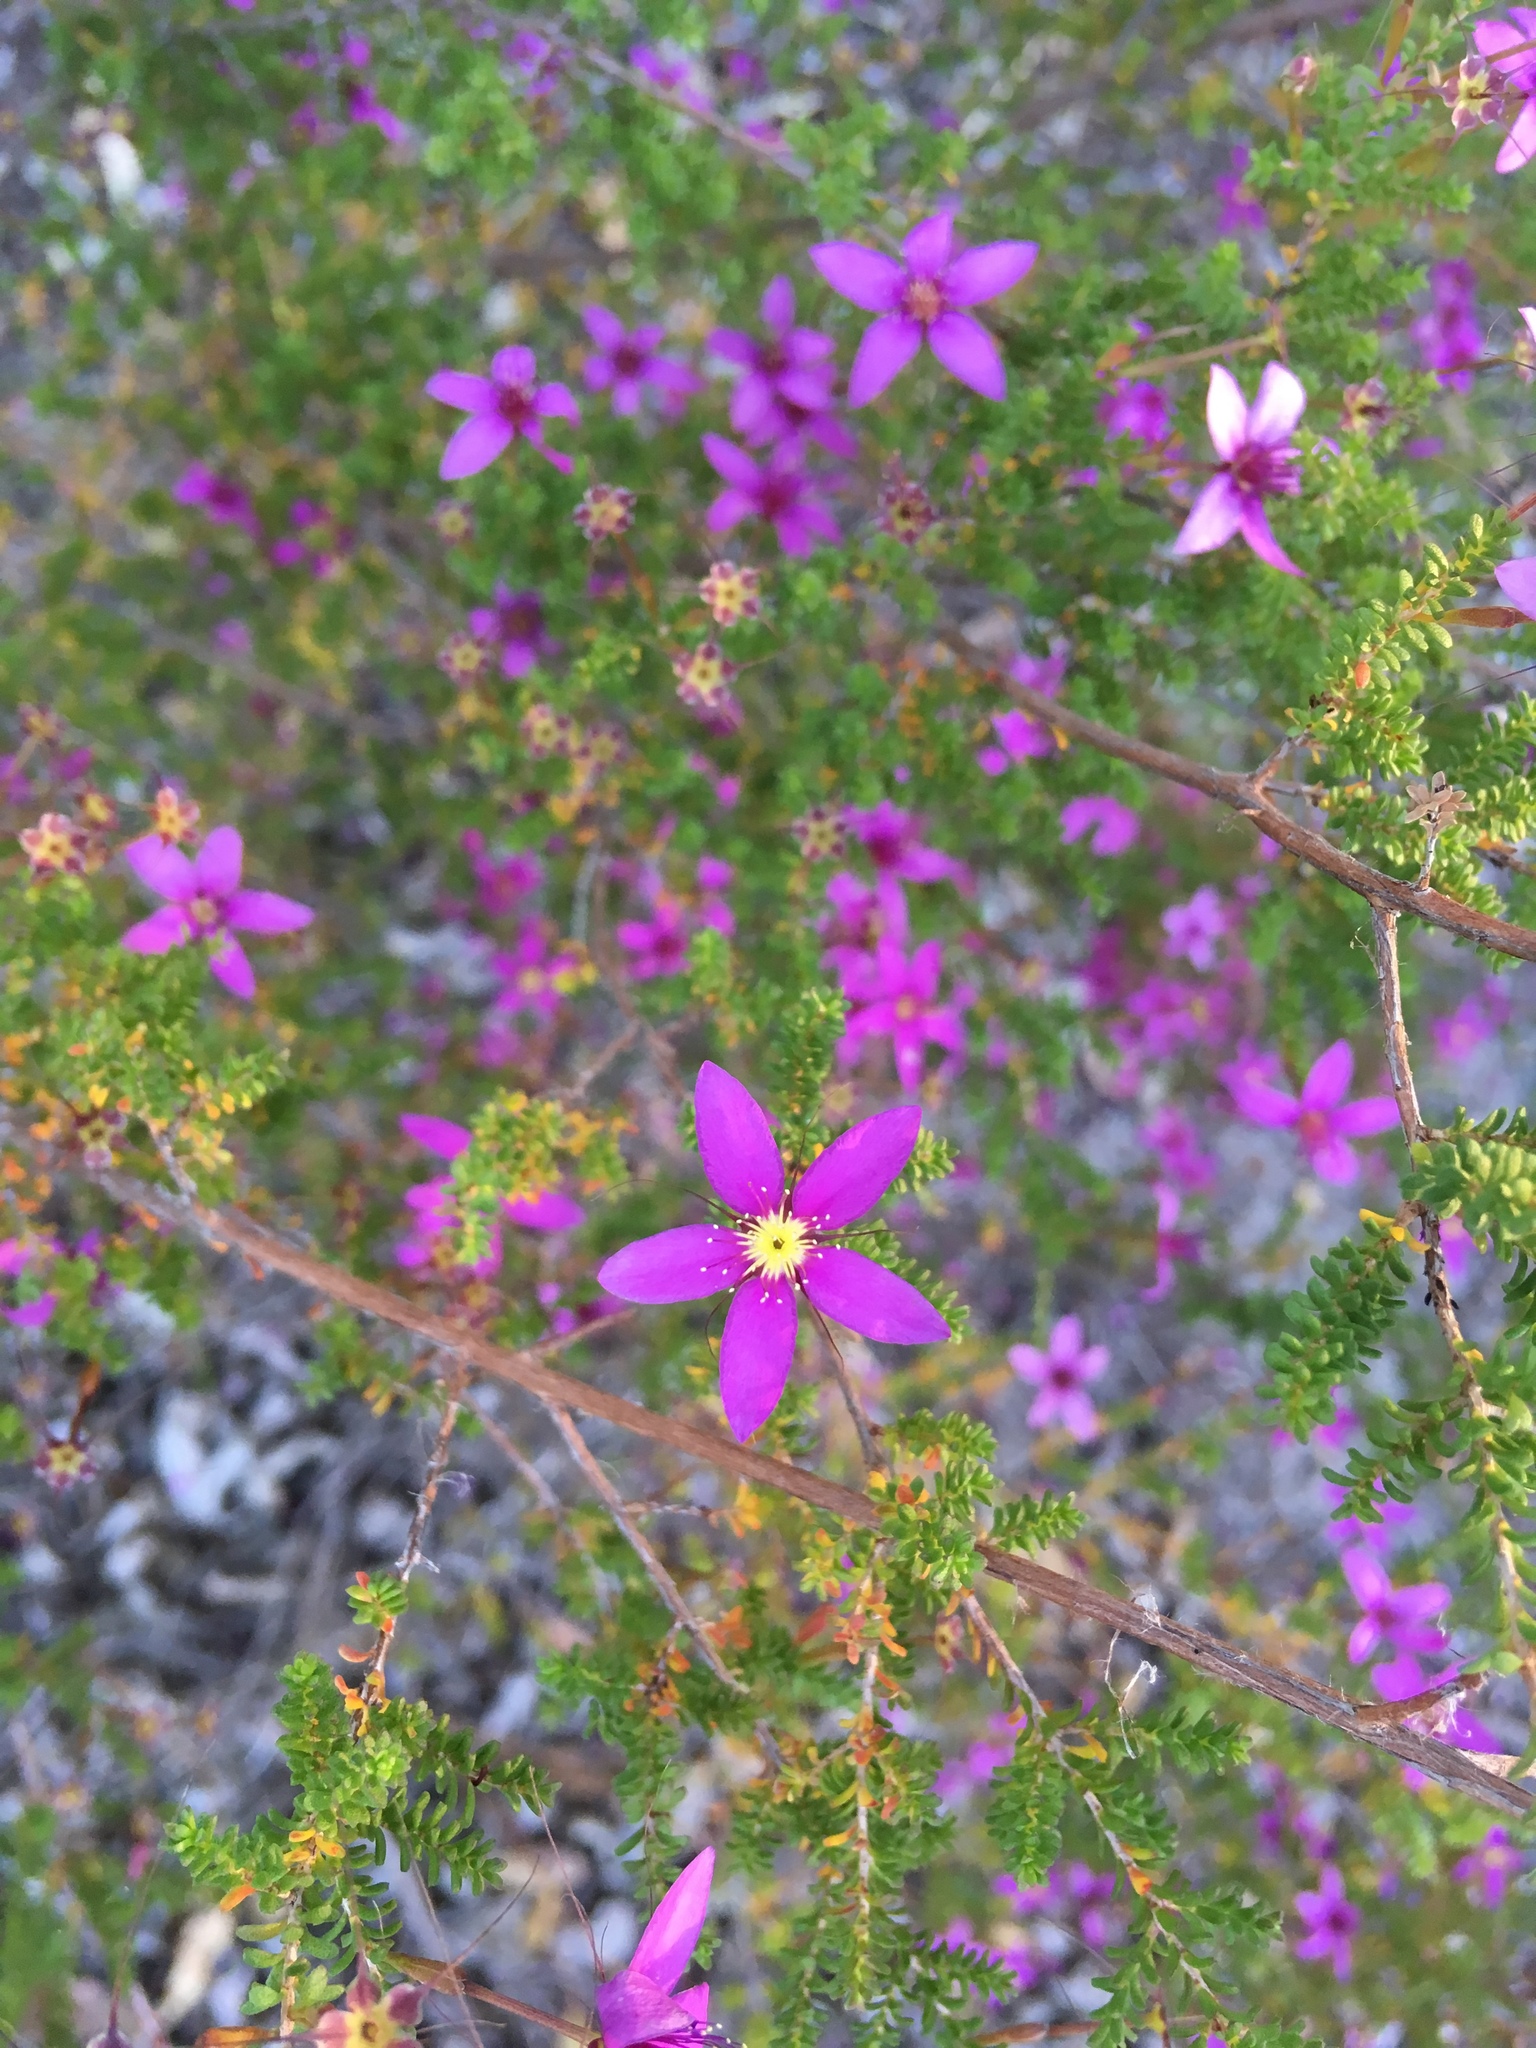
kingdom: Plantae
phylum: Tracheophyta
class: Magnoliopsida
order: Myrtales
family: Myrtaceae
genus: Calytrix
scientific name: Calytrix fraseri
